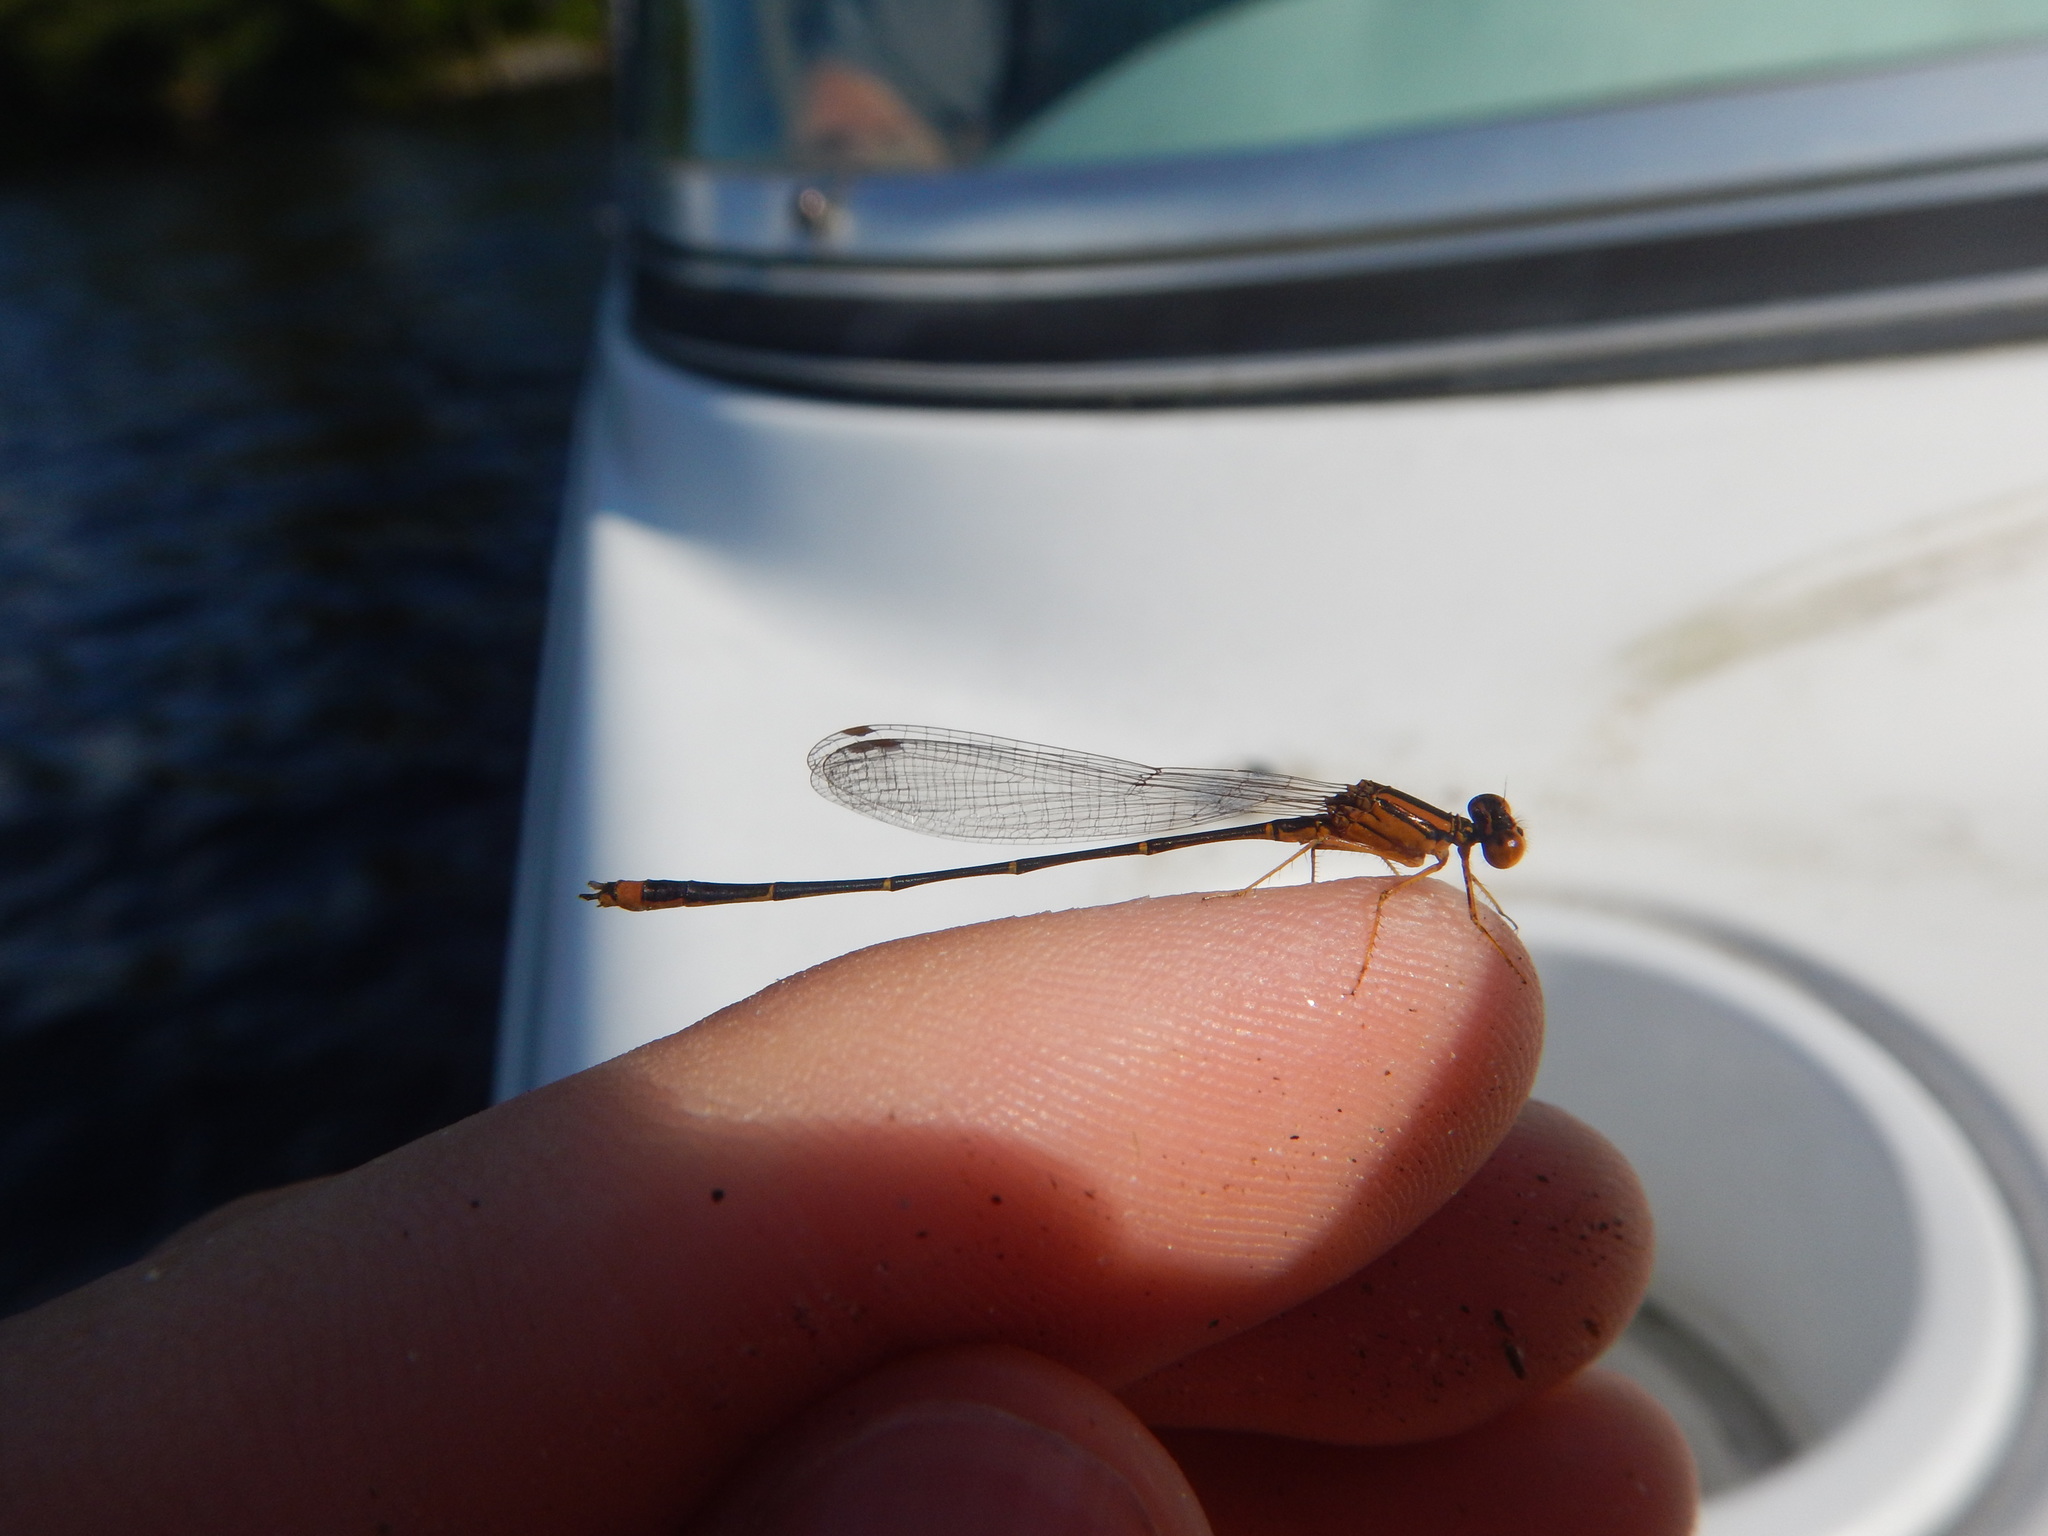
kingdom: Animalia
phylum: Arthropoda
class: Insecta
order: Odonata
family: Coenagrionidae
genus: Enallagma
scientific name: Enallagma signatum
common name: Orange bluet
